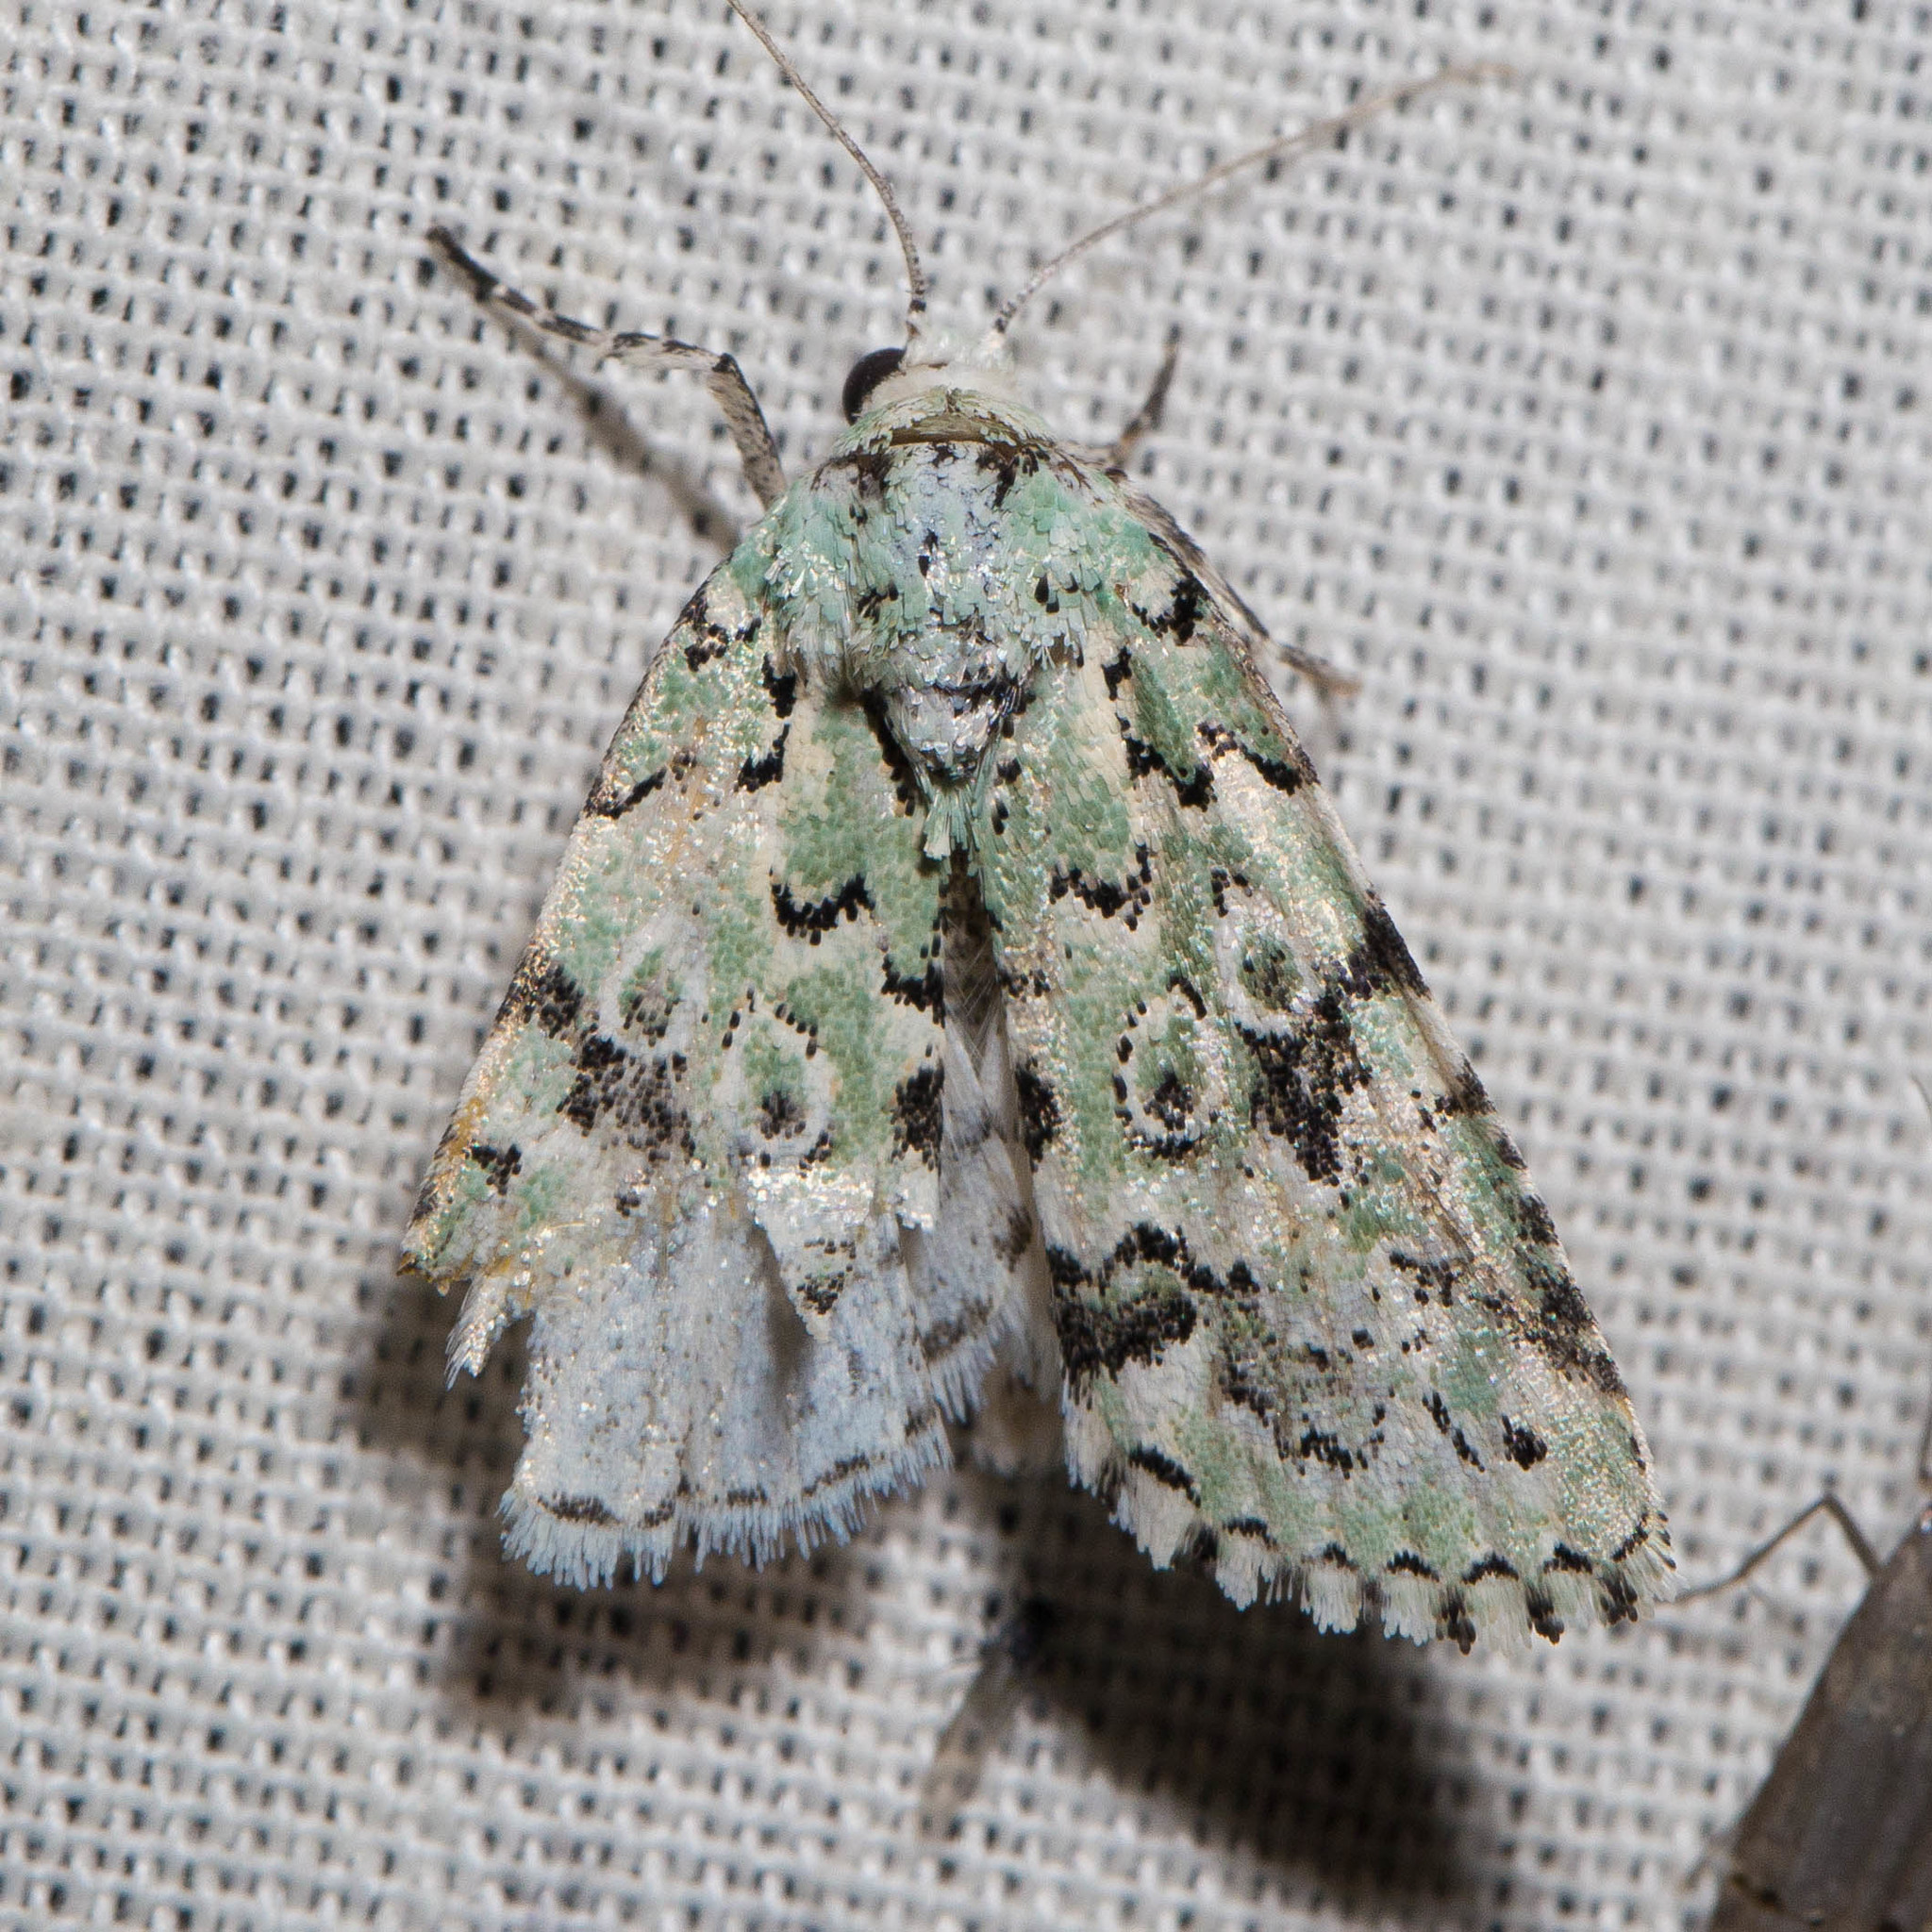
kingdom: Animalia
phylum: Arthropoda
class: Insecta
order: Lepidoptera
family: Noctuidae
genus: Bryolymnia
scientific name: Bryolymnia viridata
